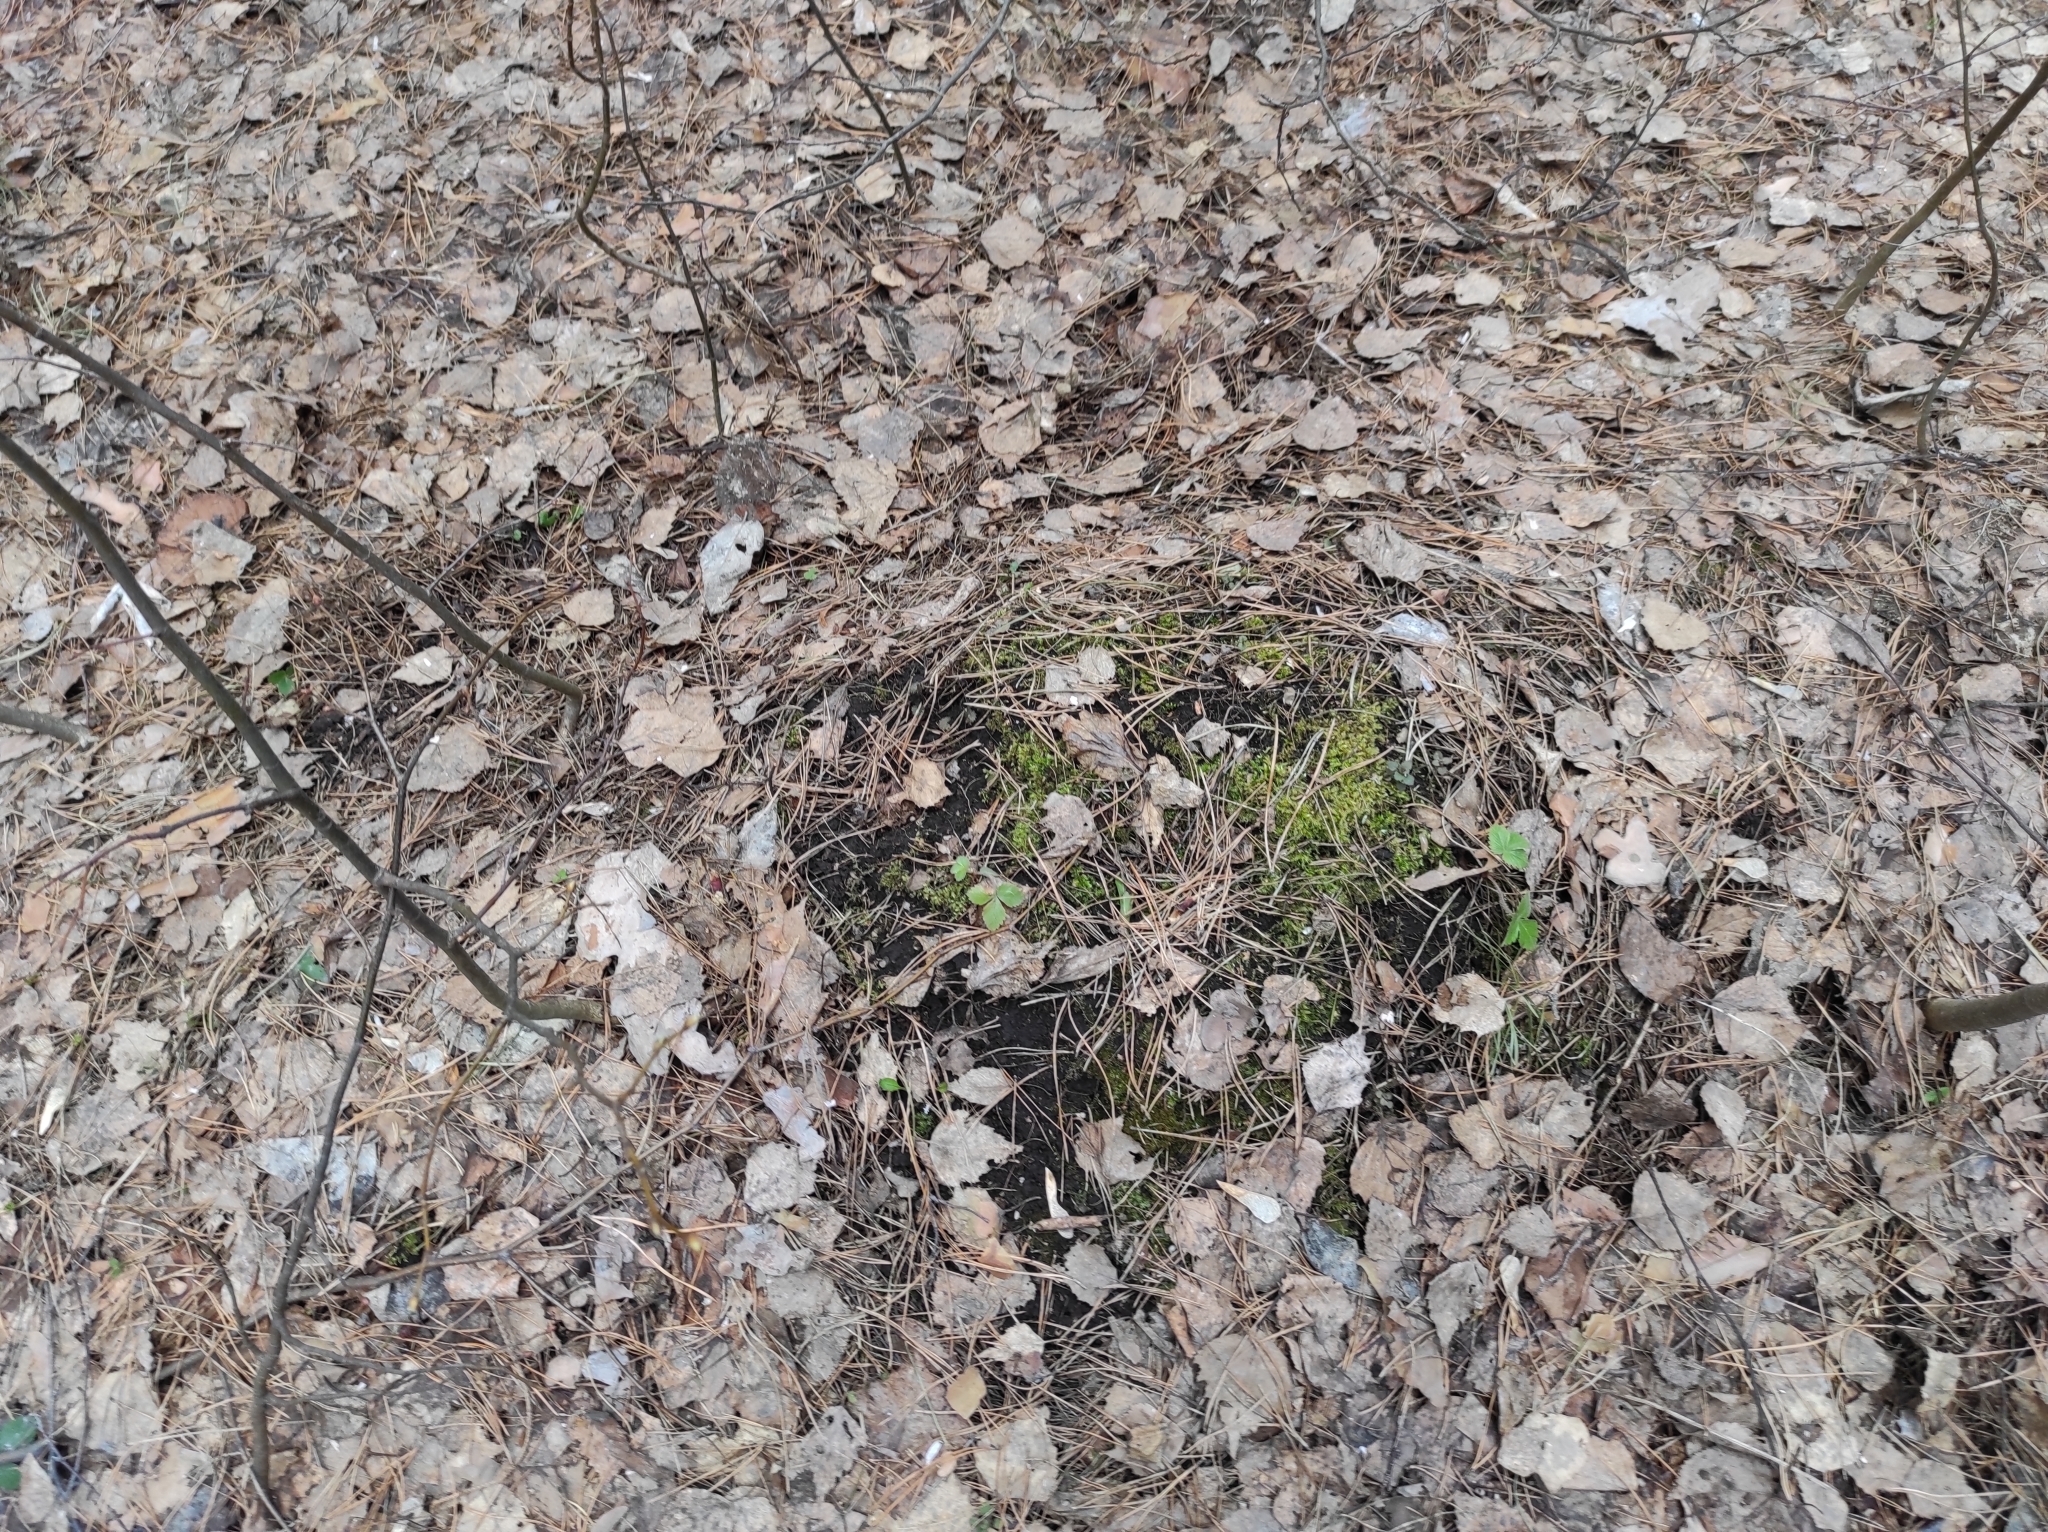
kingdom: Plantae
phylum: Tracheophyta
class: Magnoliopsida
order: Rosales
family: Rosaceae
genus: Fragaria
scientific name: Fragaria vesca
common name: Wild strawberry
